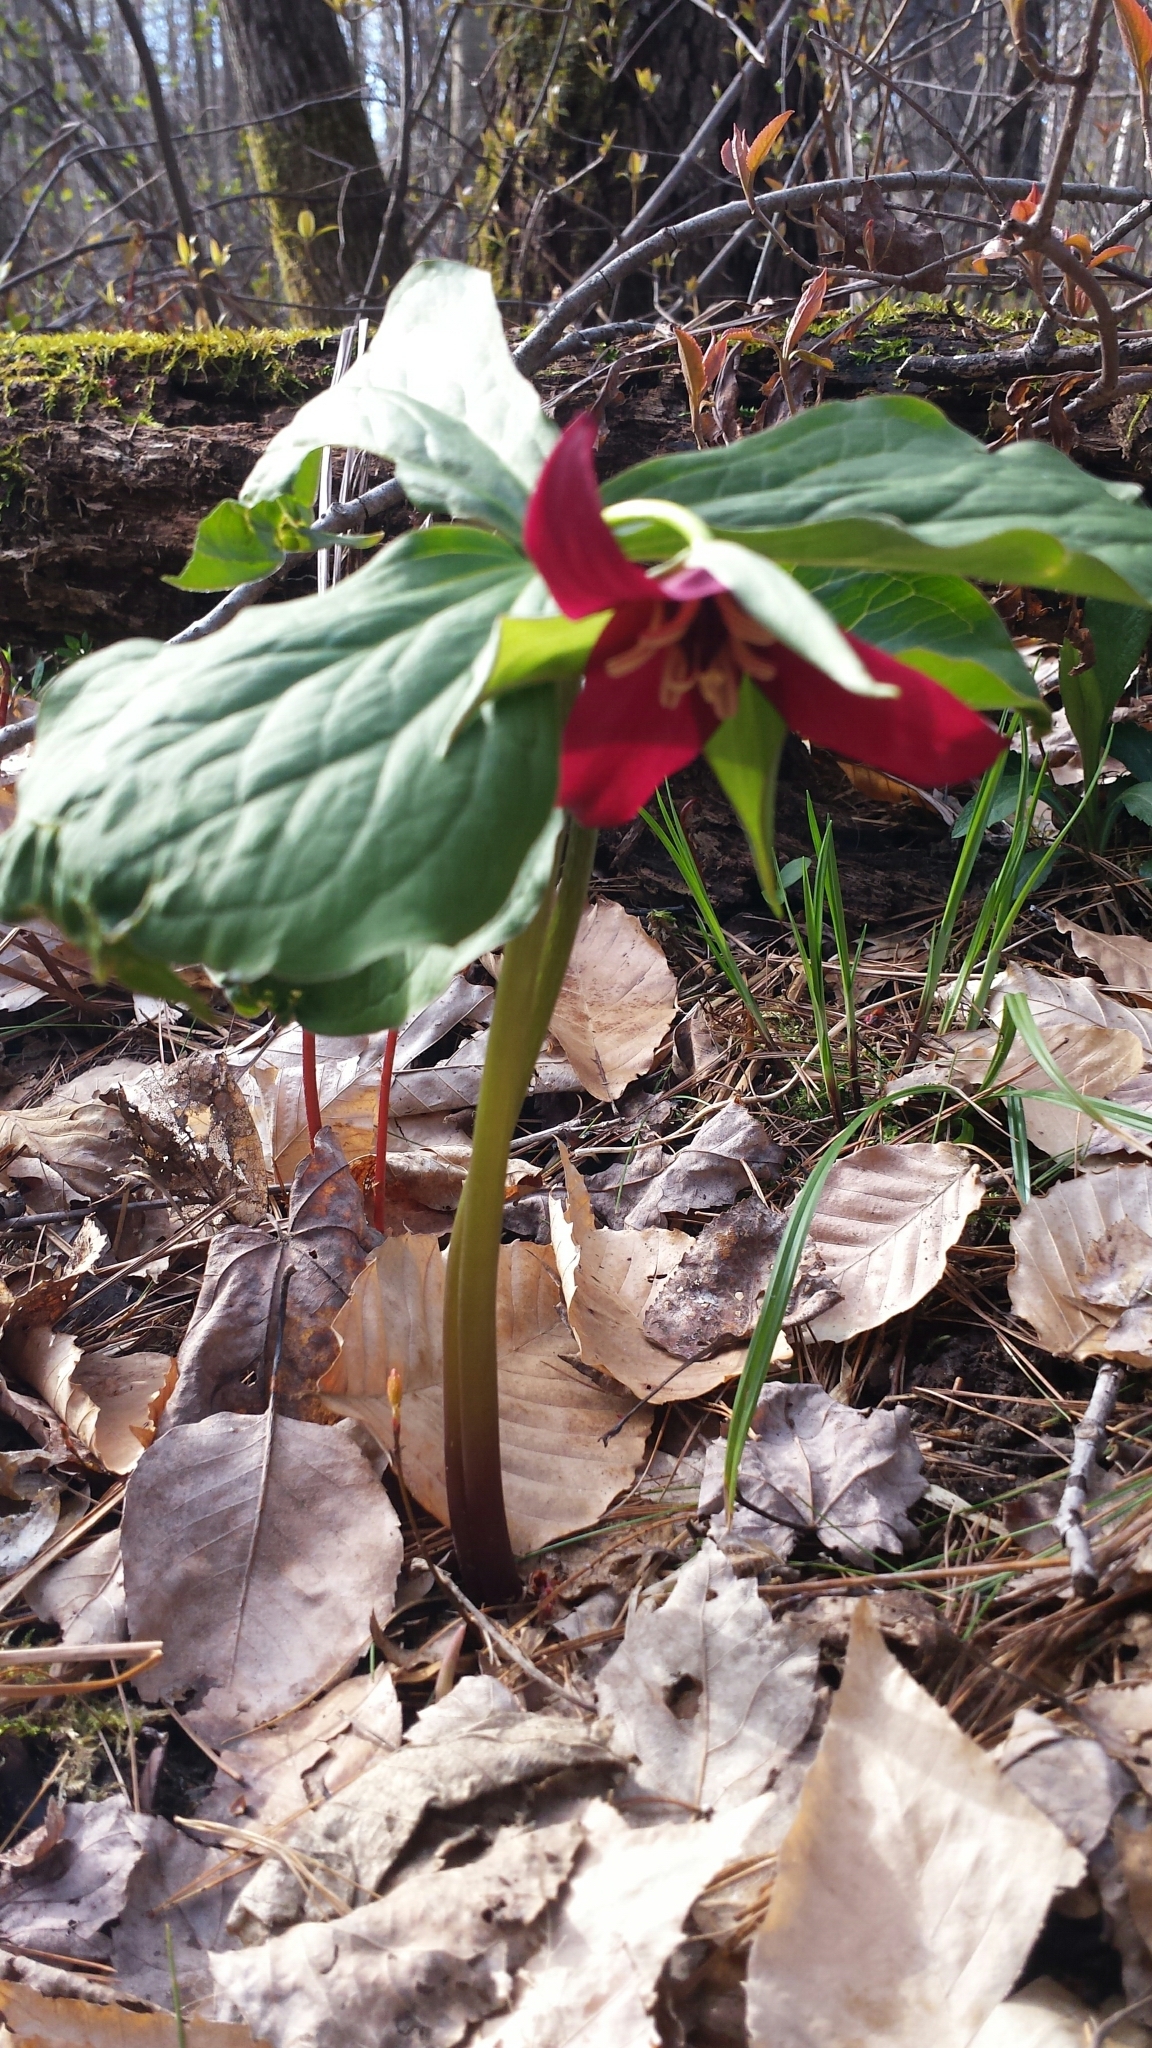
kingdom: Plantae
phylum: Tracheophyta
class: Liliopsida
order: Liliales
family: Melanthiaceae
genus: Trillium
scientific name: Trillium erectum
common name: Purple trillium
